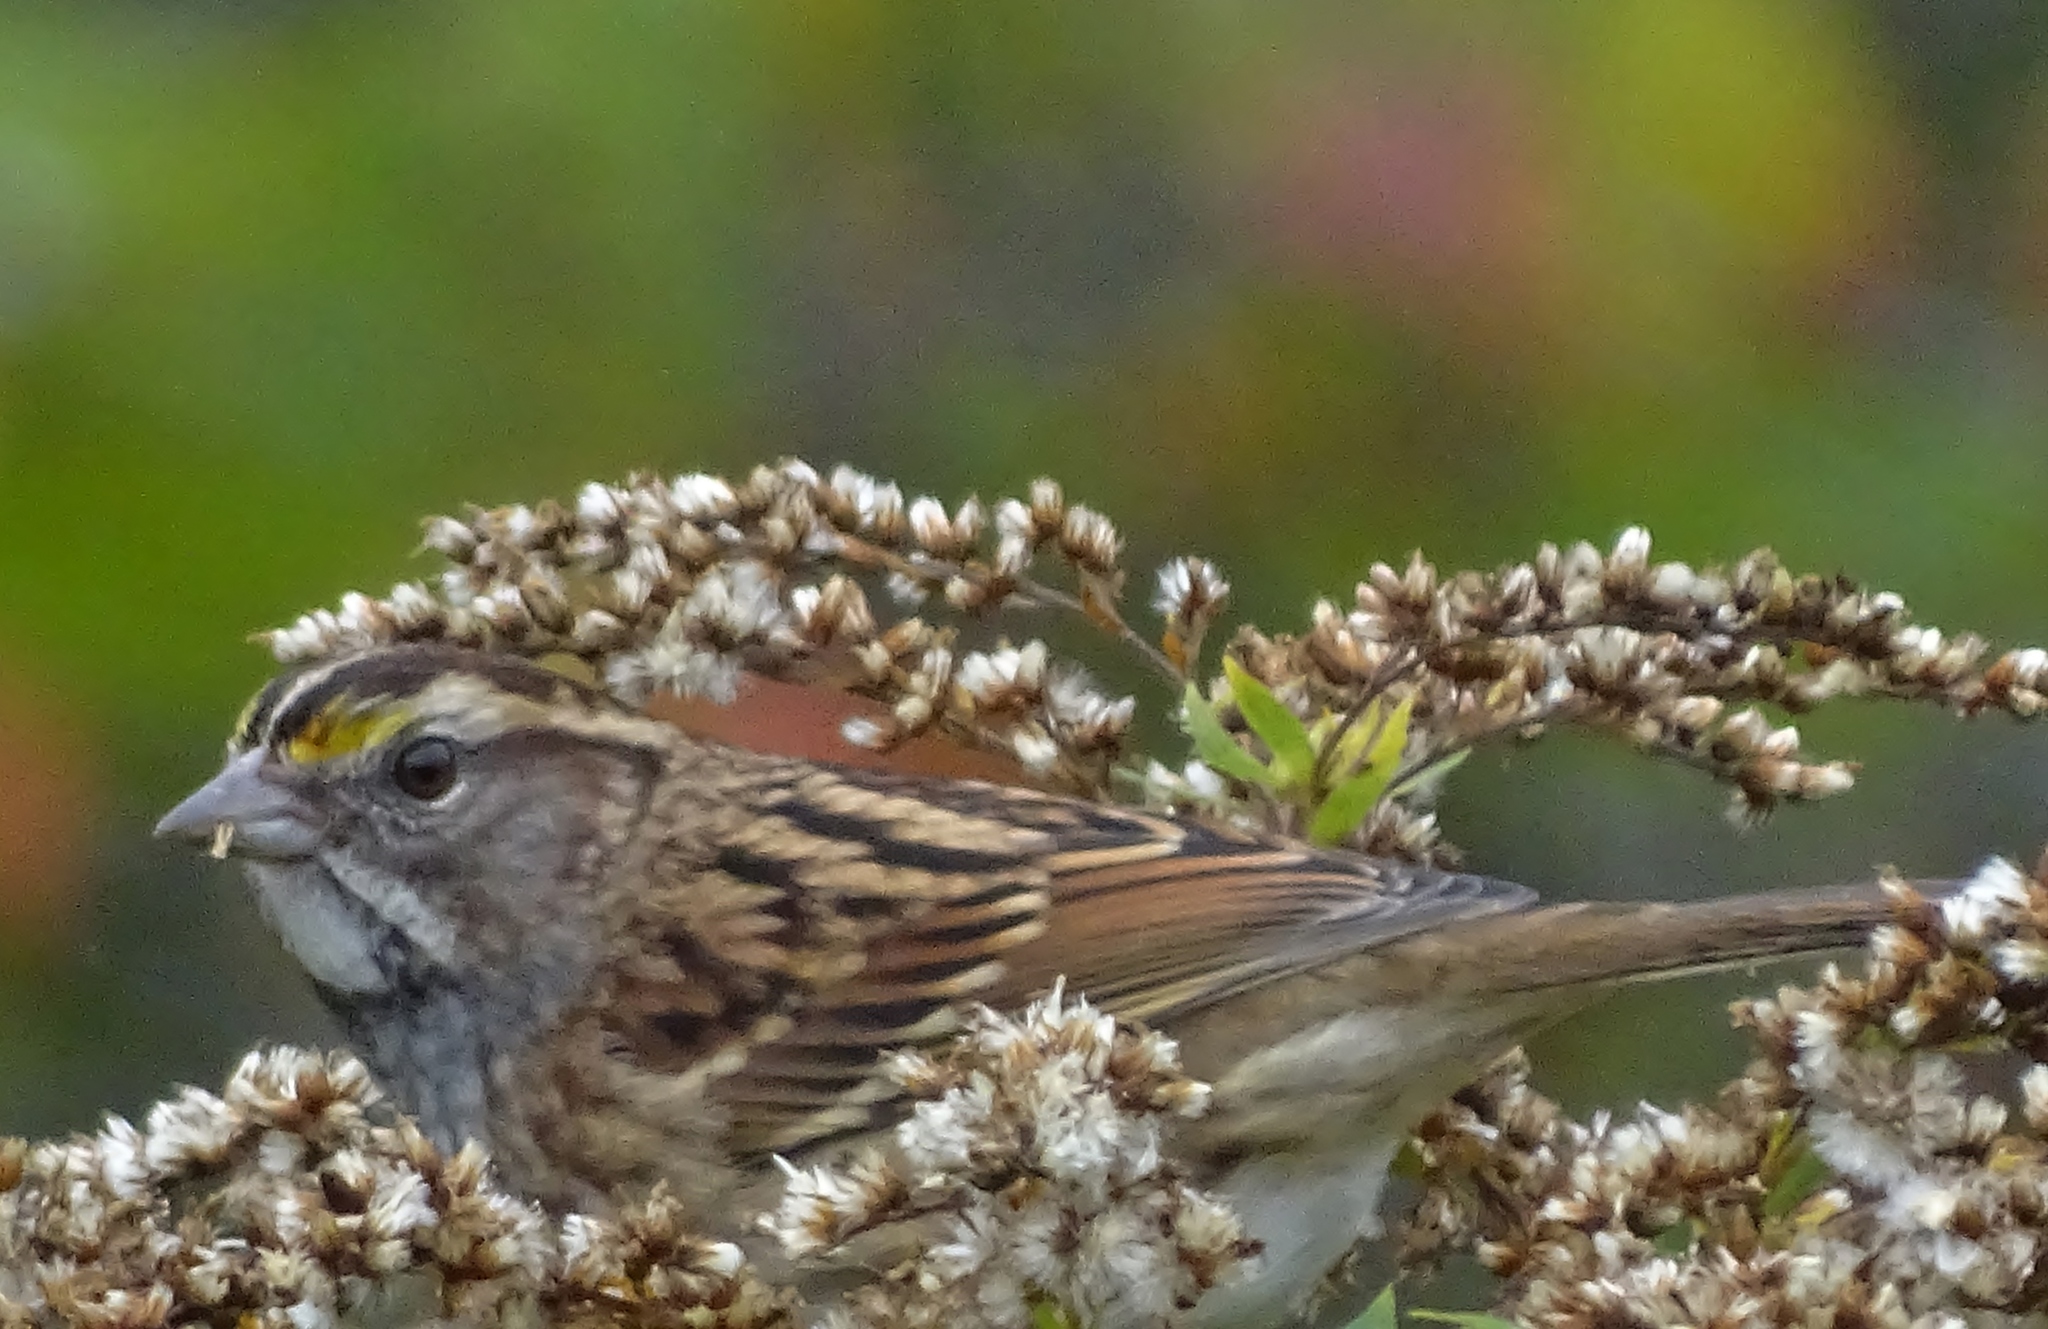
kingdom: Animalia
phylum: Chordata
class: Aves
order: Passeriformes
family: Passerellidae
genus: Zonotrichia
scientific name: Zonotrichia albicollis
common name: White-throated sparrow
